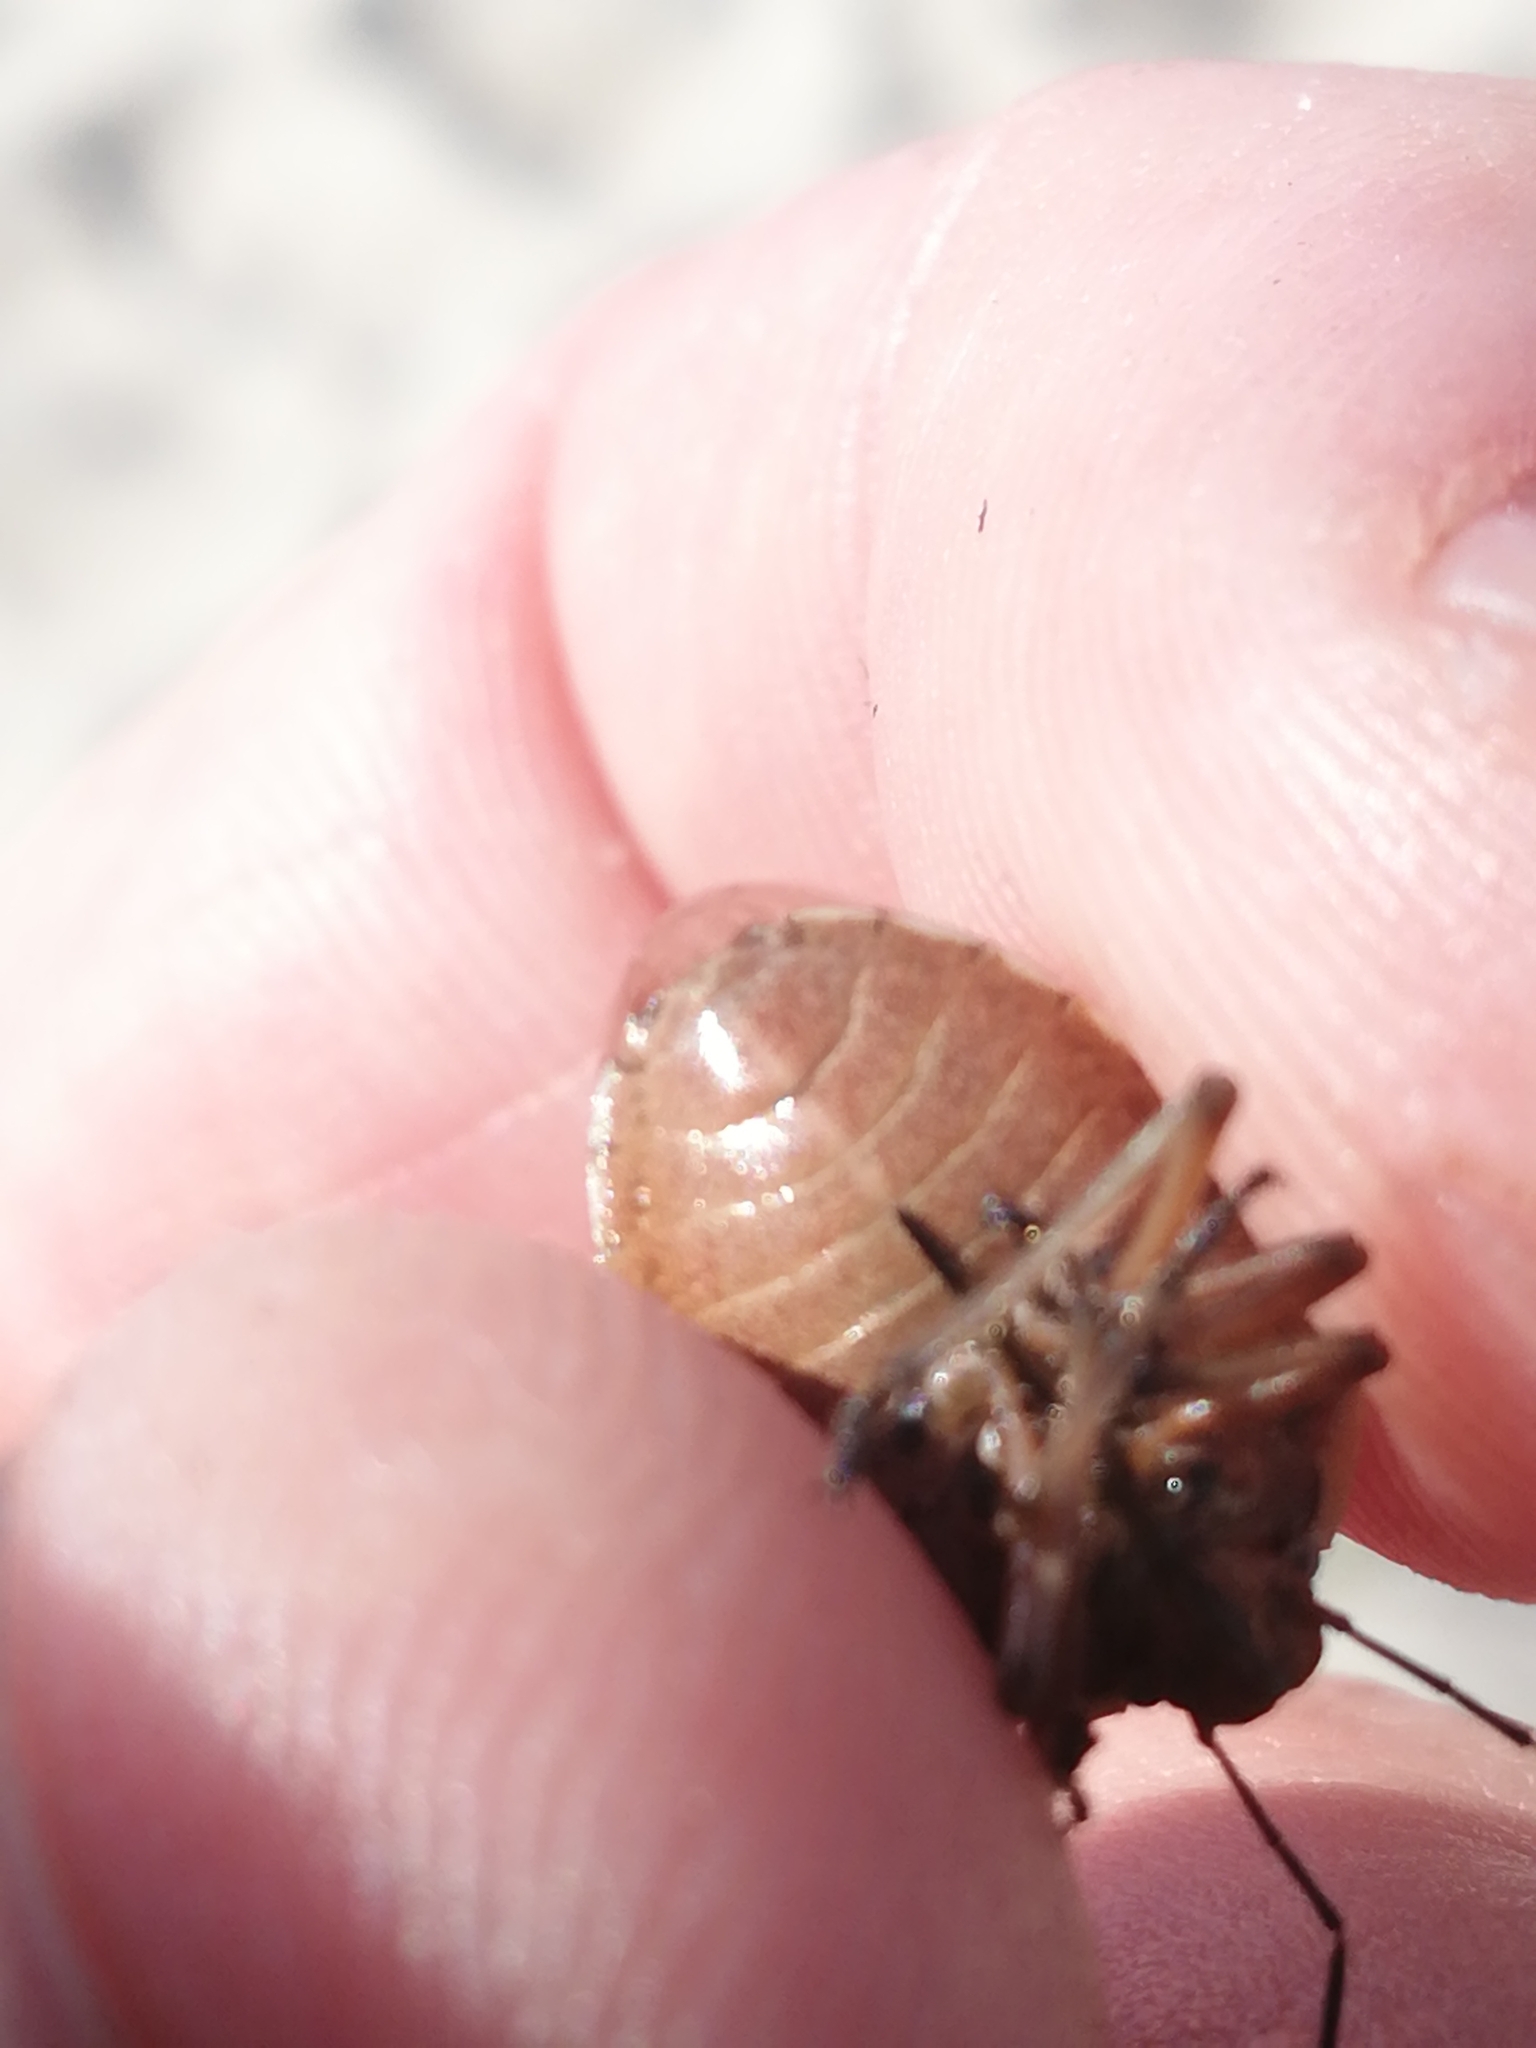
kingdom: Animalia
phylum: Arthropoda
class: Insecta
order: Hemiptera
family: Pentatomidae
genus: Chlorochroa
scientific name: Chlorochroa pinicola
